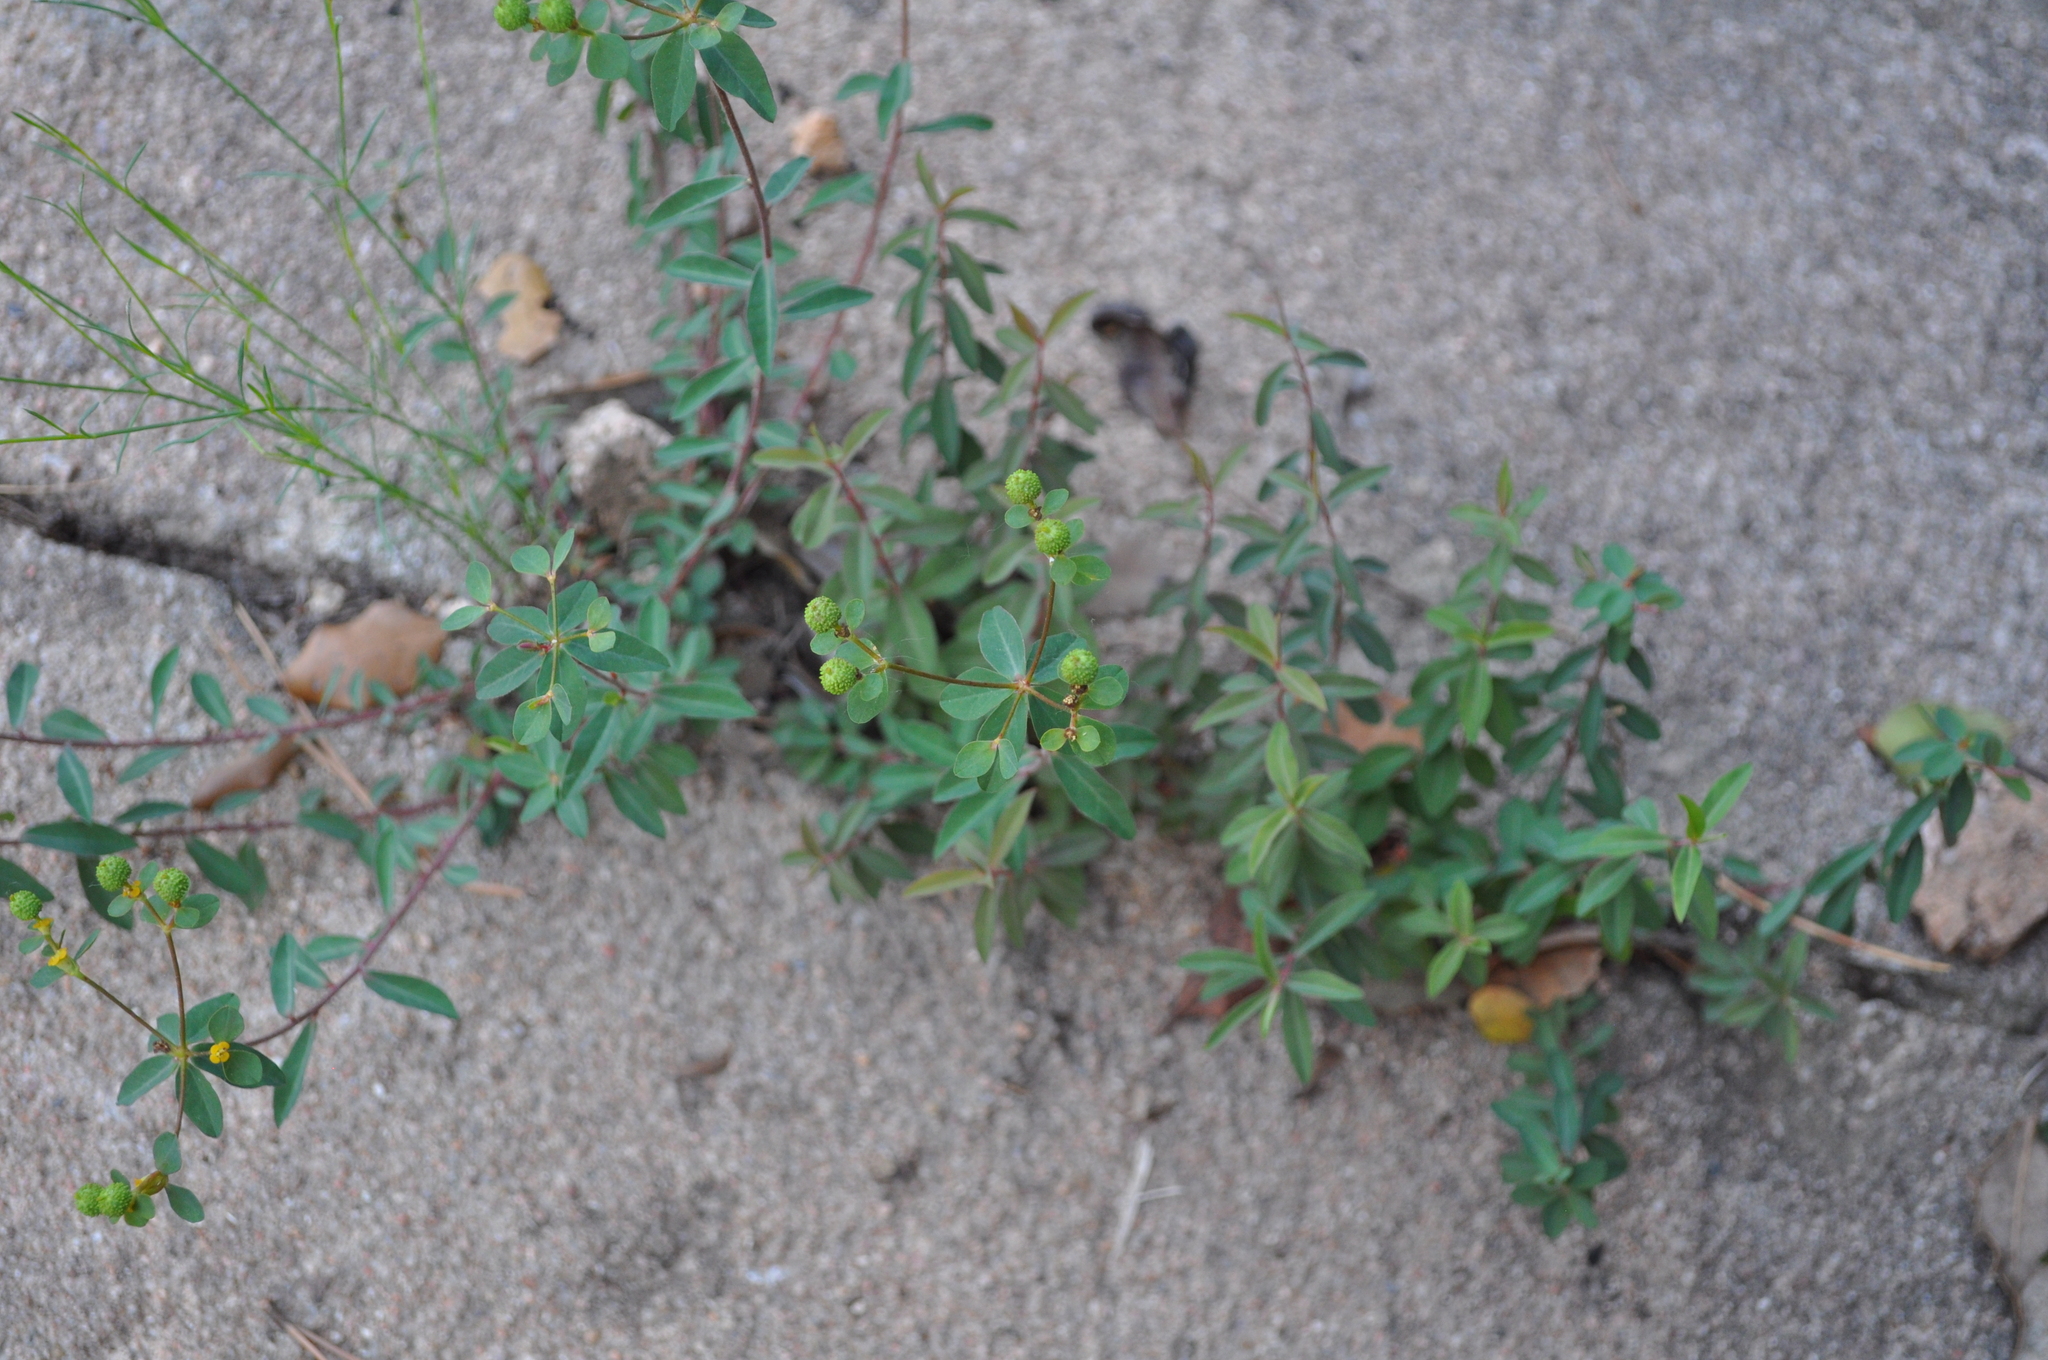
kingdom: Plantae
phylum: Tracheophyta
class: Magnoliopsida
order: Malpighiales
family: Euphorbiaceae
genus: Euphorbia
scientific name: Euphorbia flavicoma
